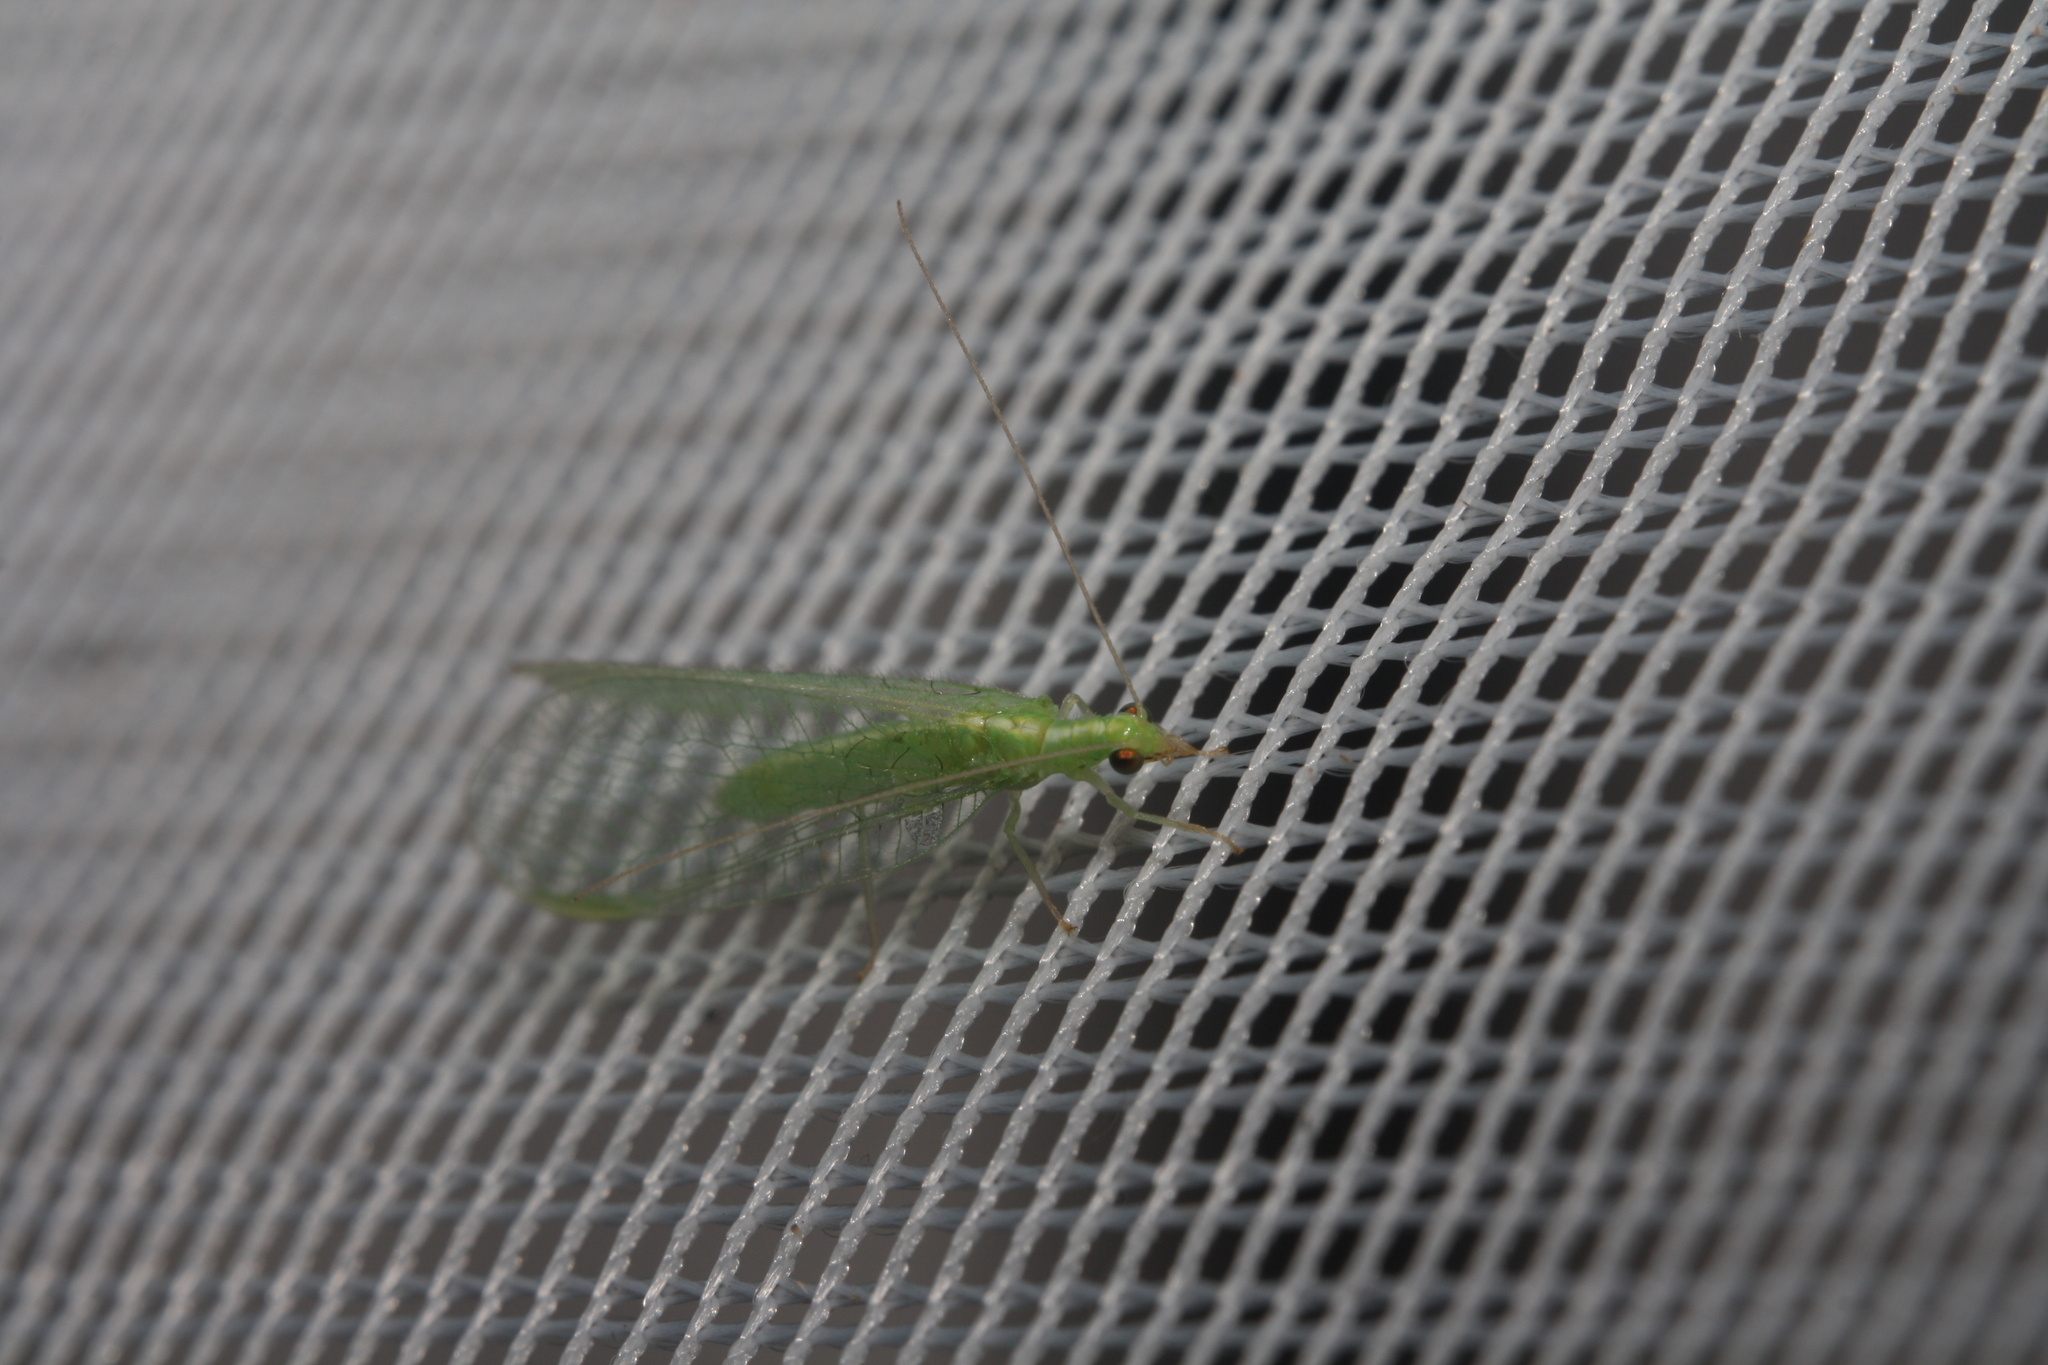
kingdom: Animalia
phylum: Arthropoda
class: Insecta
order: Neuroptera
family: Chrysopidae
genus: Chrysoperla
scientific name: Chrysoperla
